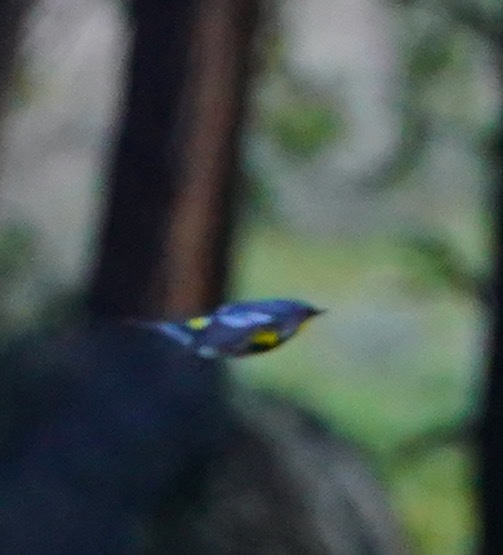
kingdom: Animalia
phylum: Chordata
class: Aves
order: Passeriformes
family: Parulidae
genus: Setophaga
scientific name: Setophaga coronata
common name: Myrtle warbler
